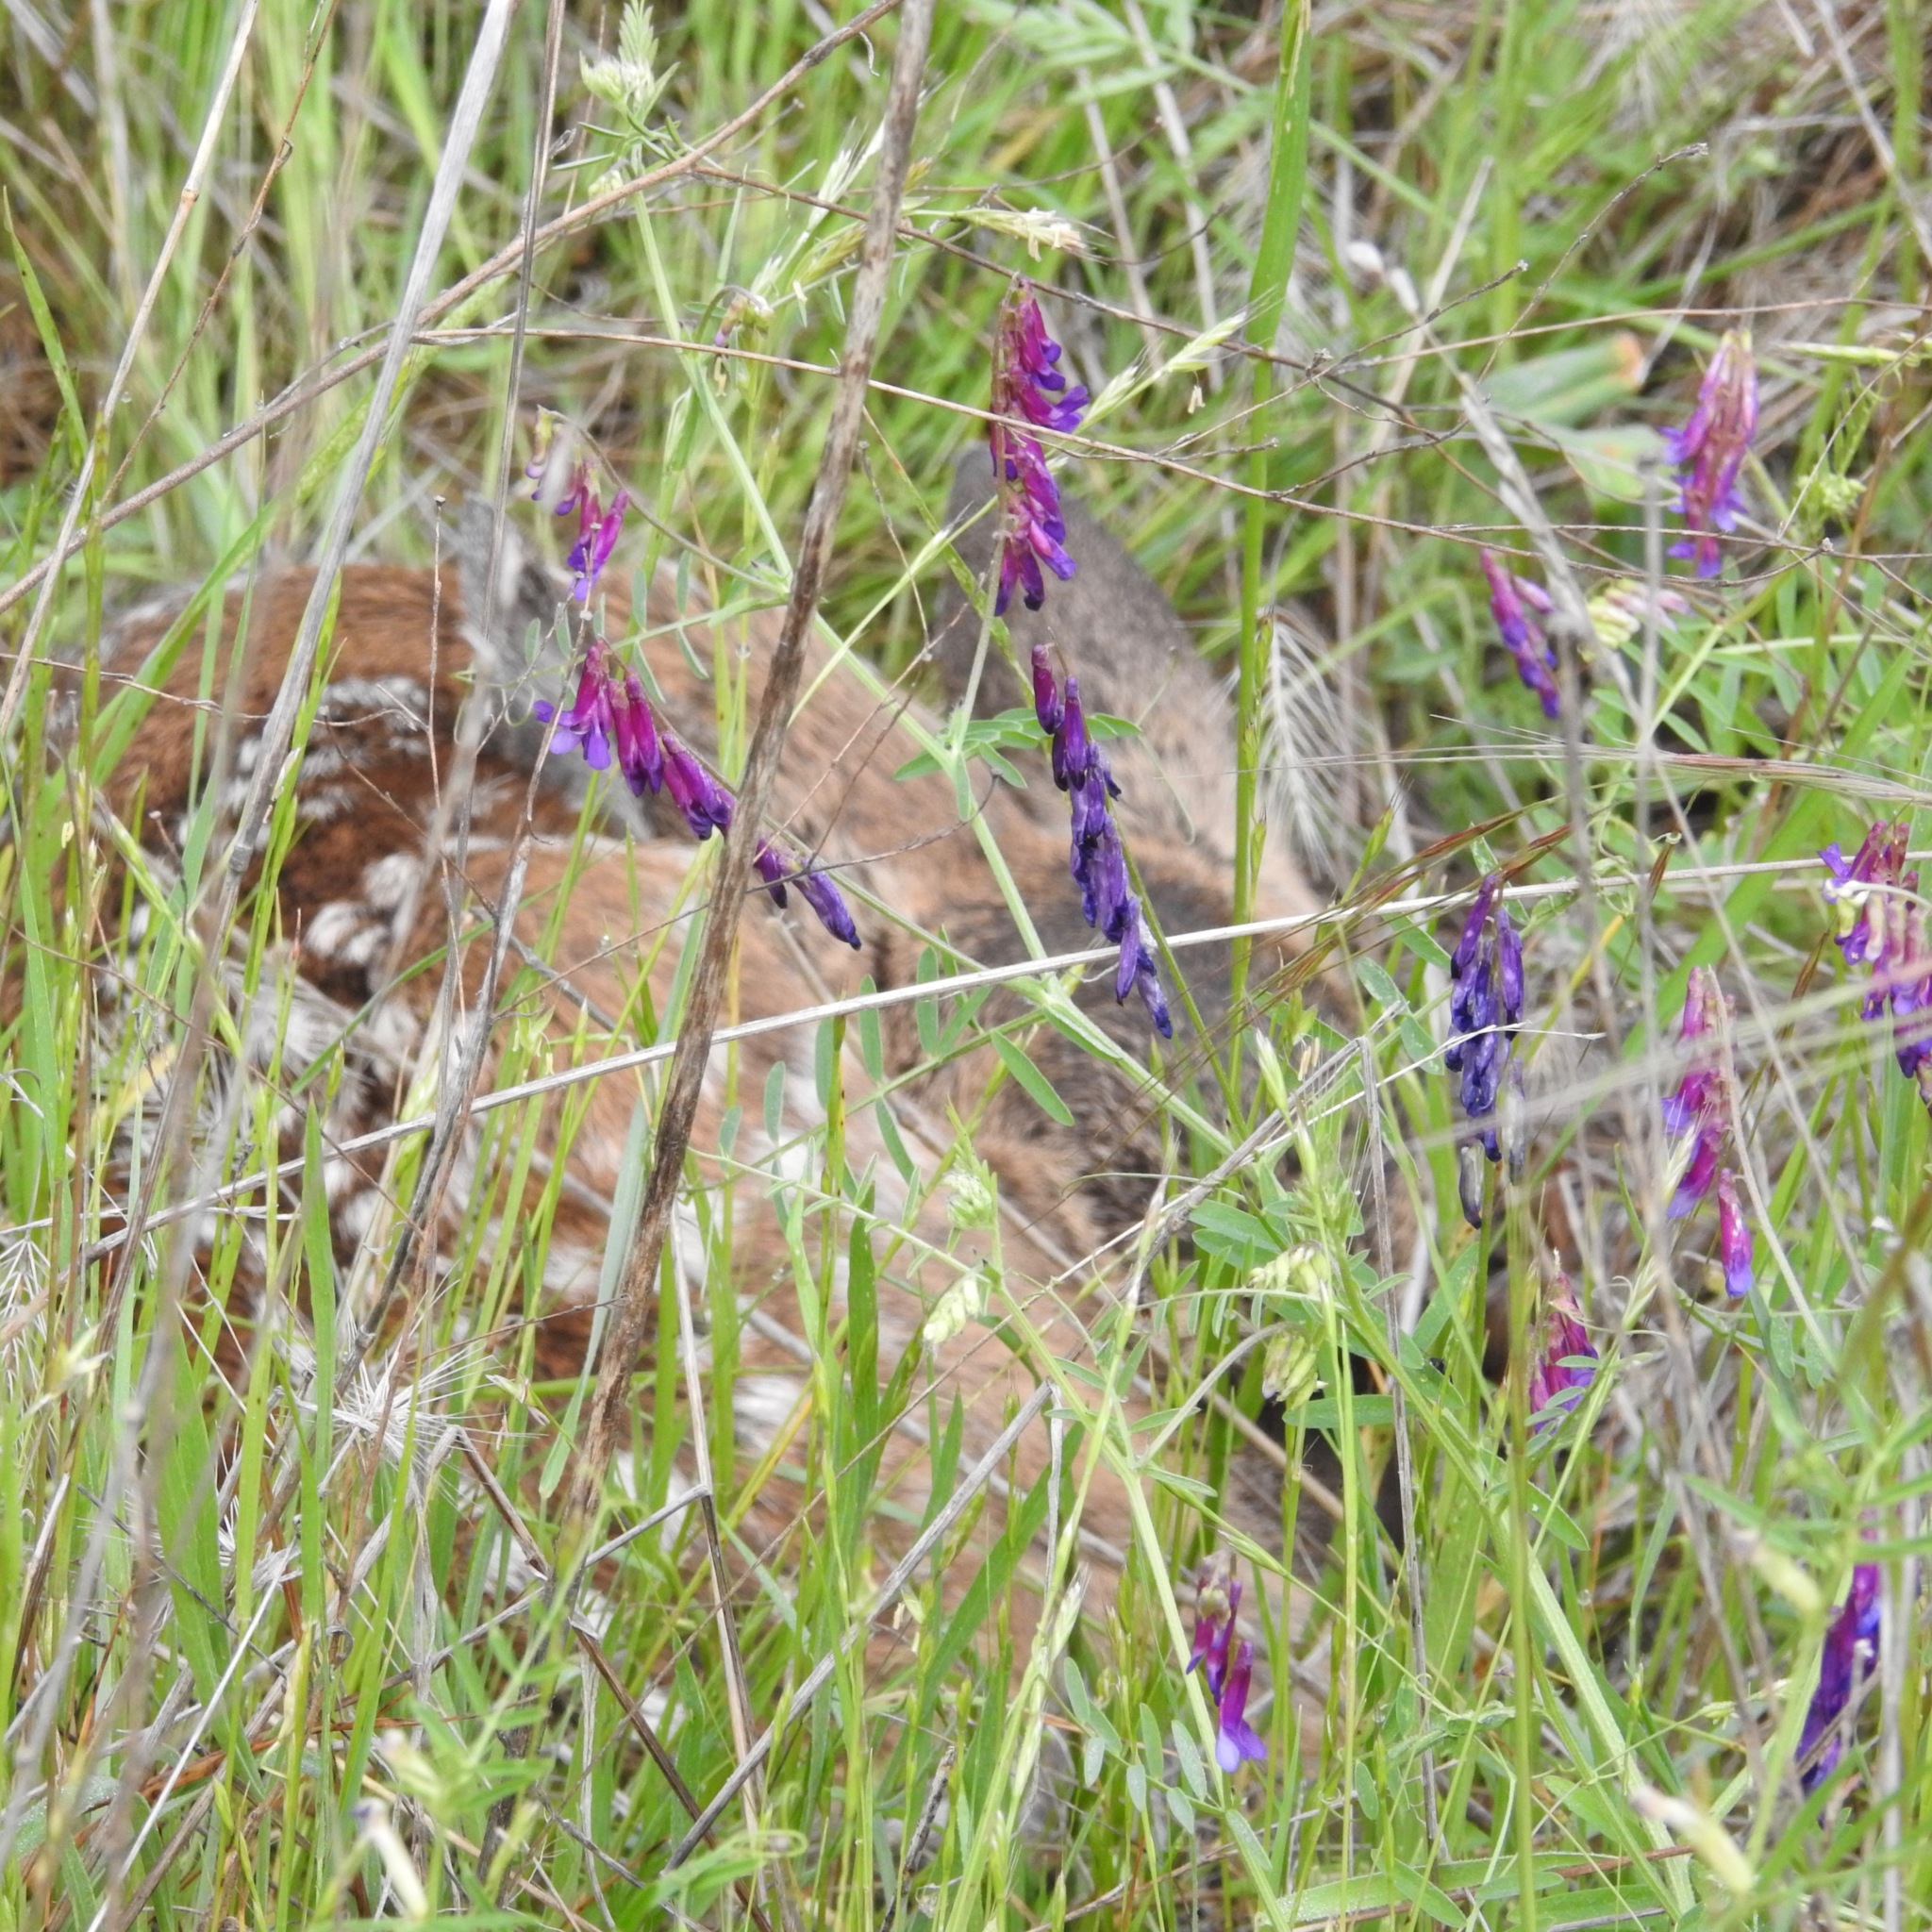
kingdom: Plantae
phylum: Tracheophyta
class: Magnoliopsida
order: Fabales
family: Fabaceae
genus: Vicia
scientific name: Vicia villosa
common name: Fodder vetch
